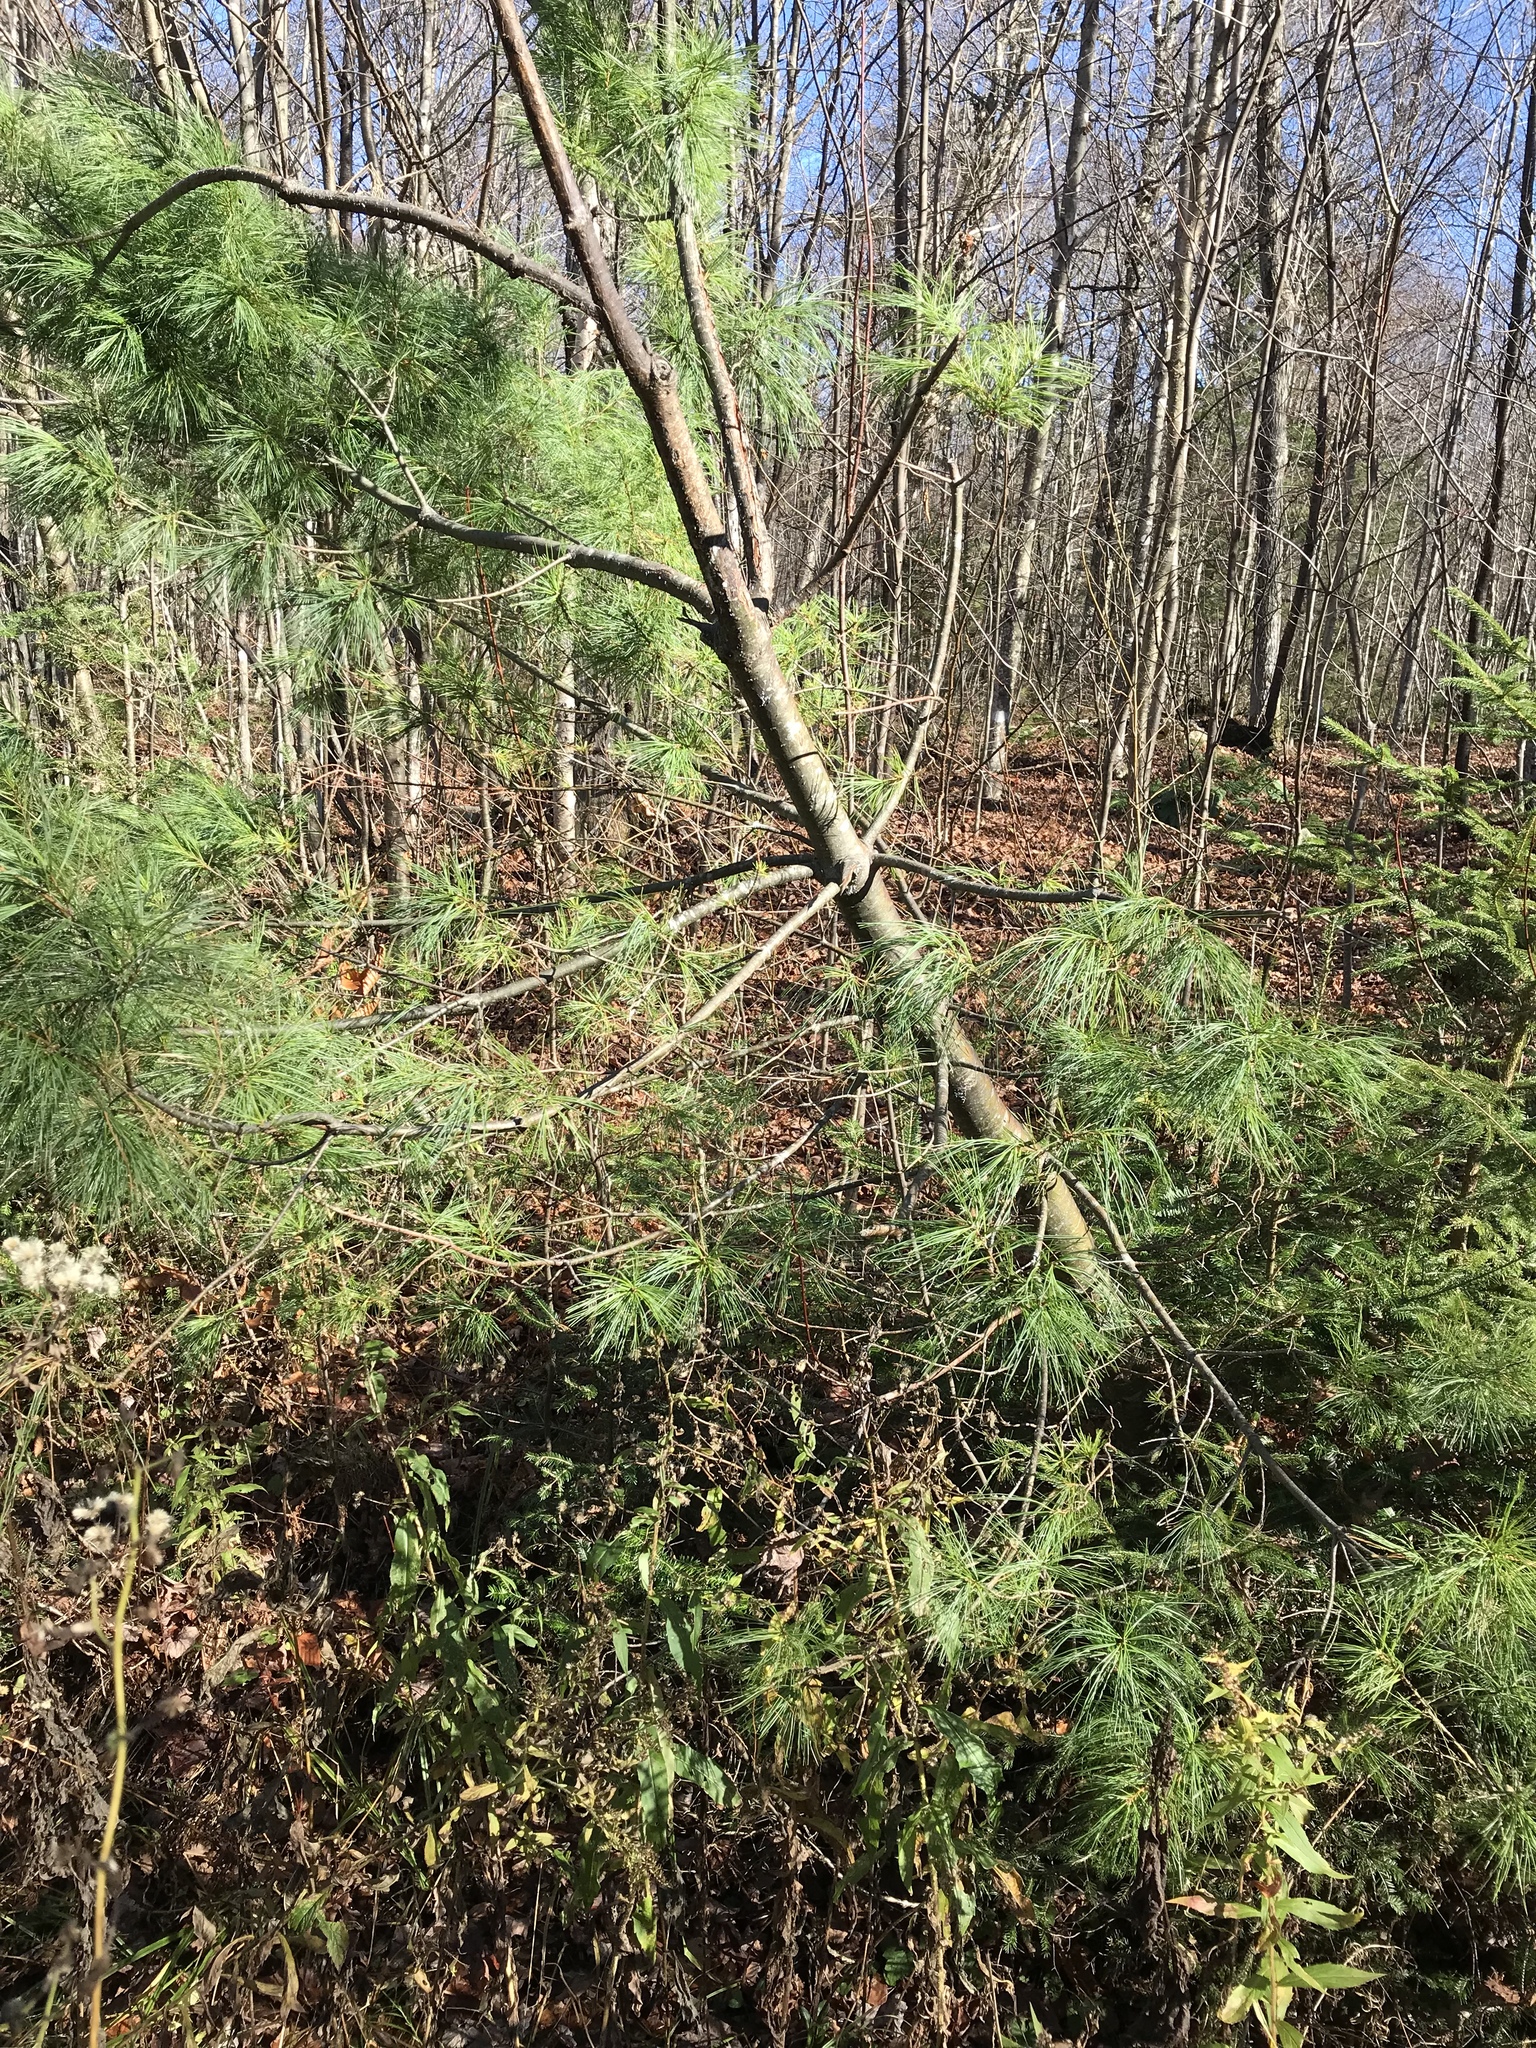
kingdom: Plantae
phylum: Tracheophyta
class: Pinopsida
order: Pinales
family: Pinaceae
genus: Pinus
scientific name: Pinus strobus
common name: Weymouth pine
